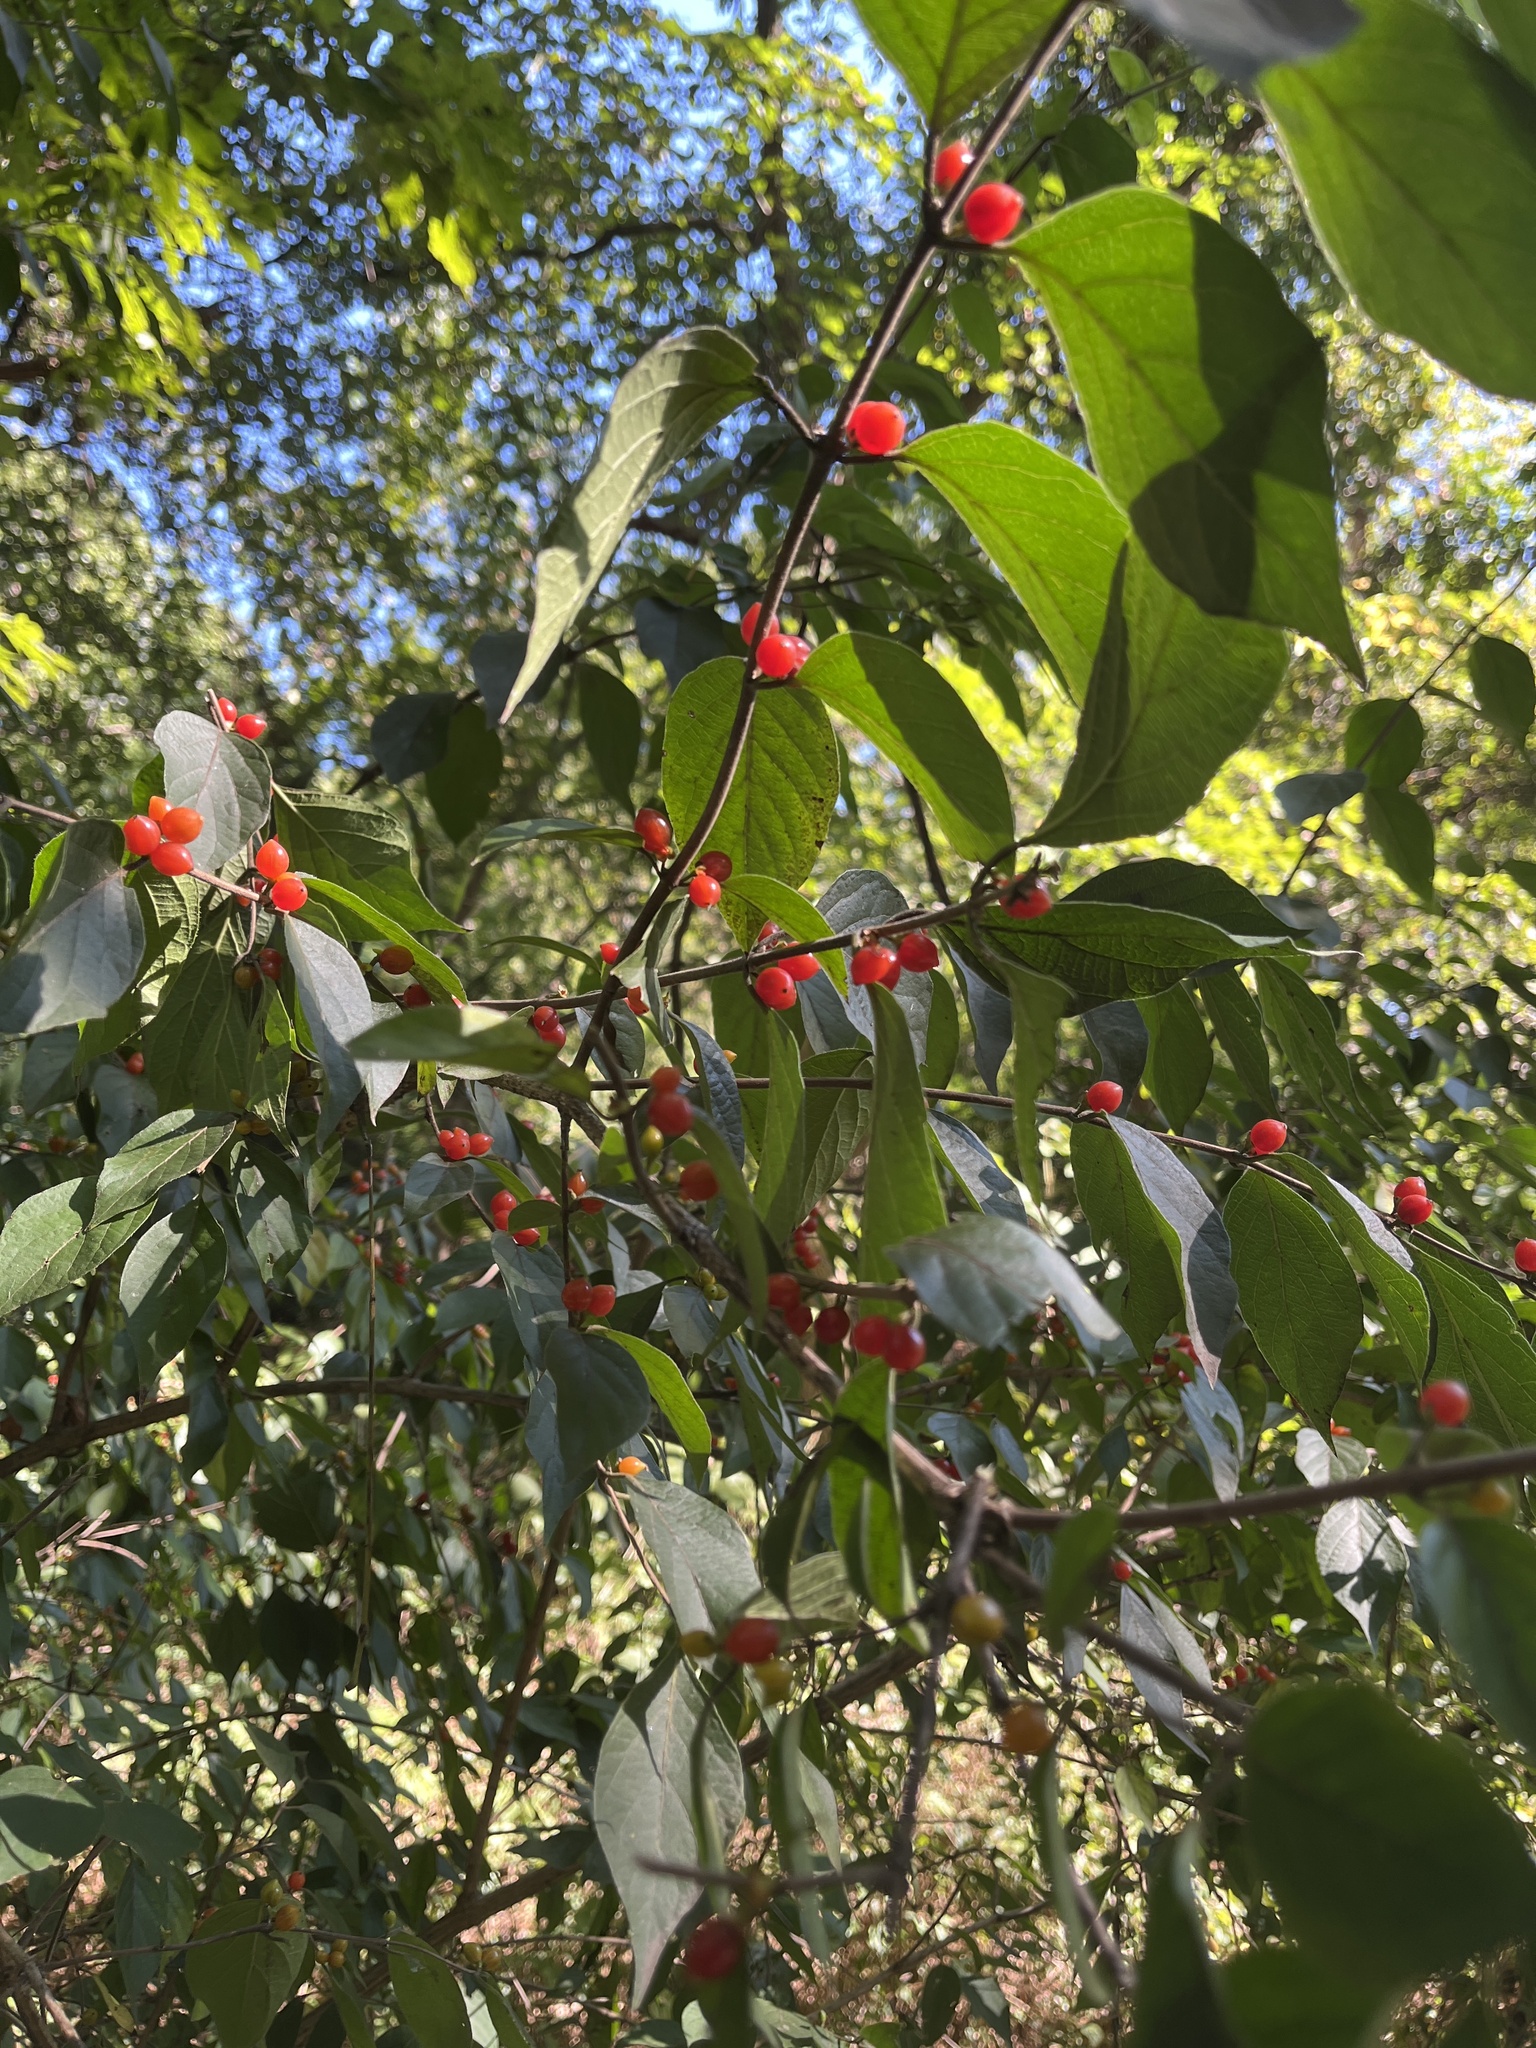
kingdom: Plantae
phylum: Tracheophyta
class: Magnoliopsida
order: Dipsacales
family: Caprifoliaceae
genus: Lonicera
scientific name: Lonicera maackii
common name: Amur honeysuckle
